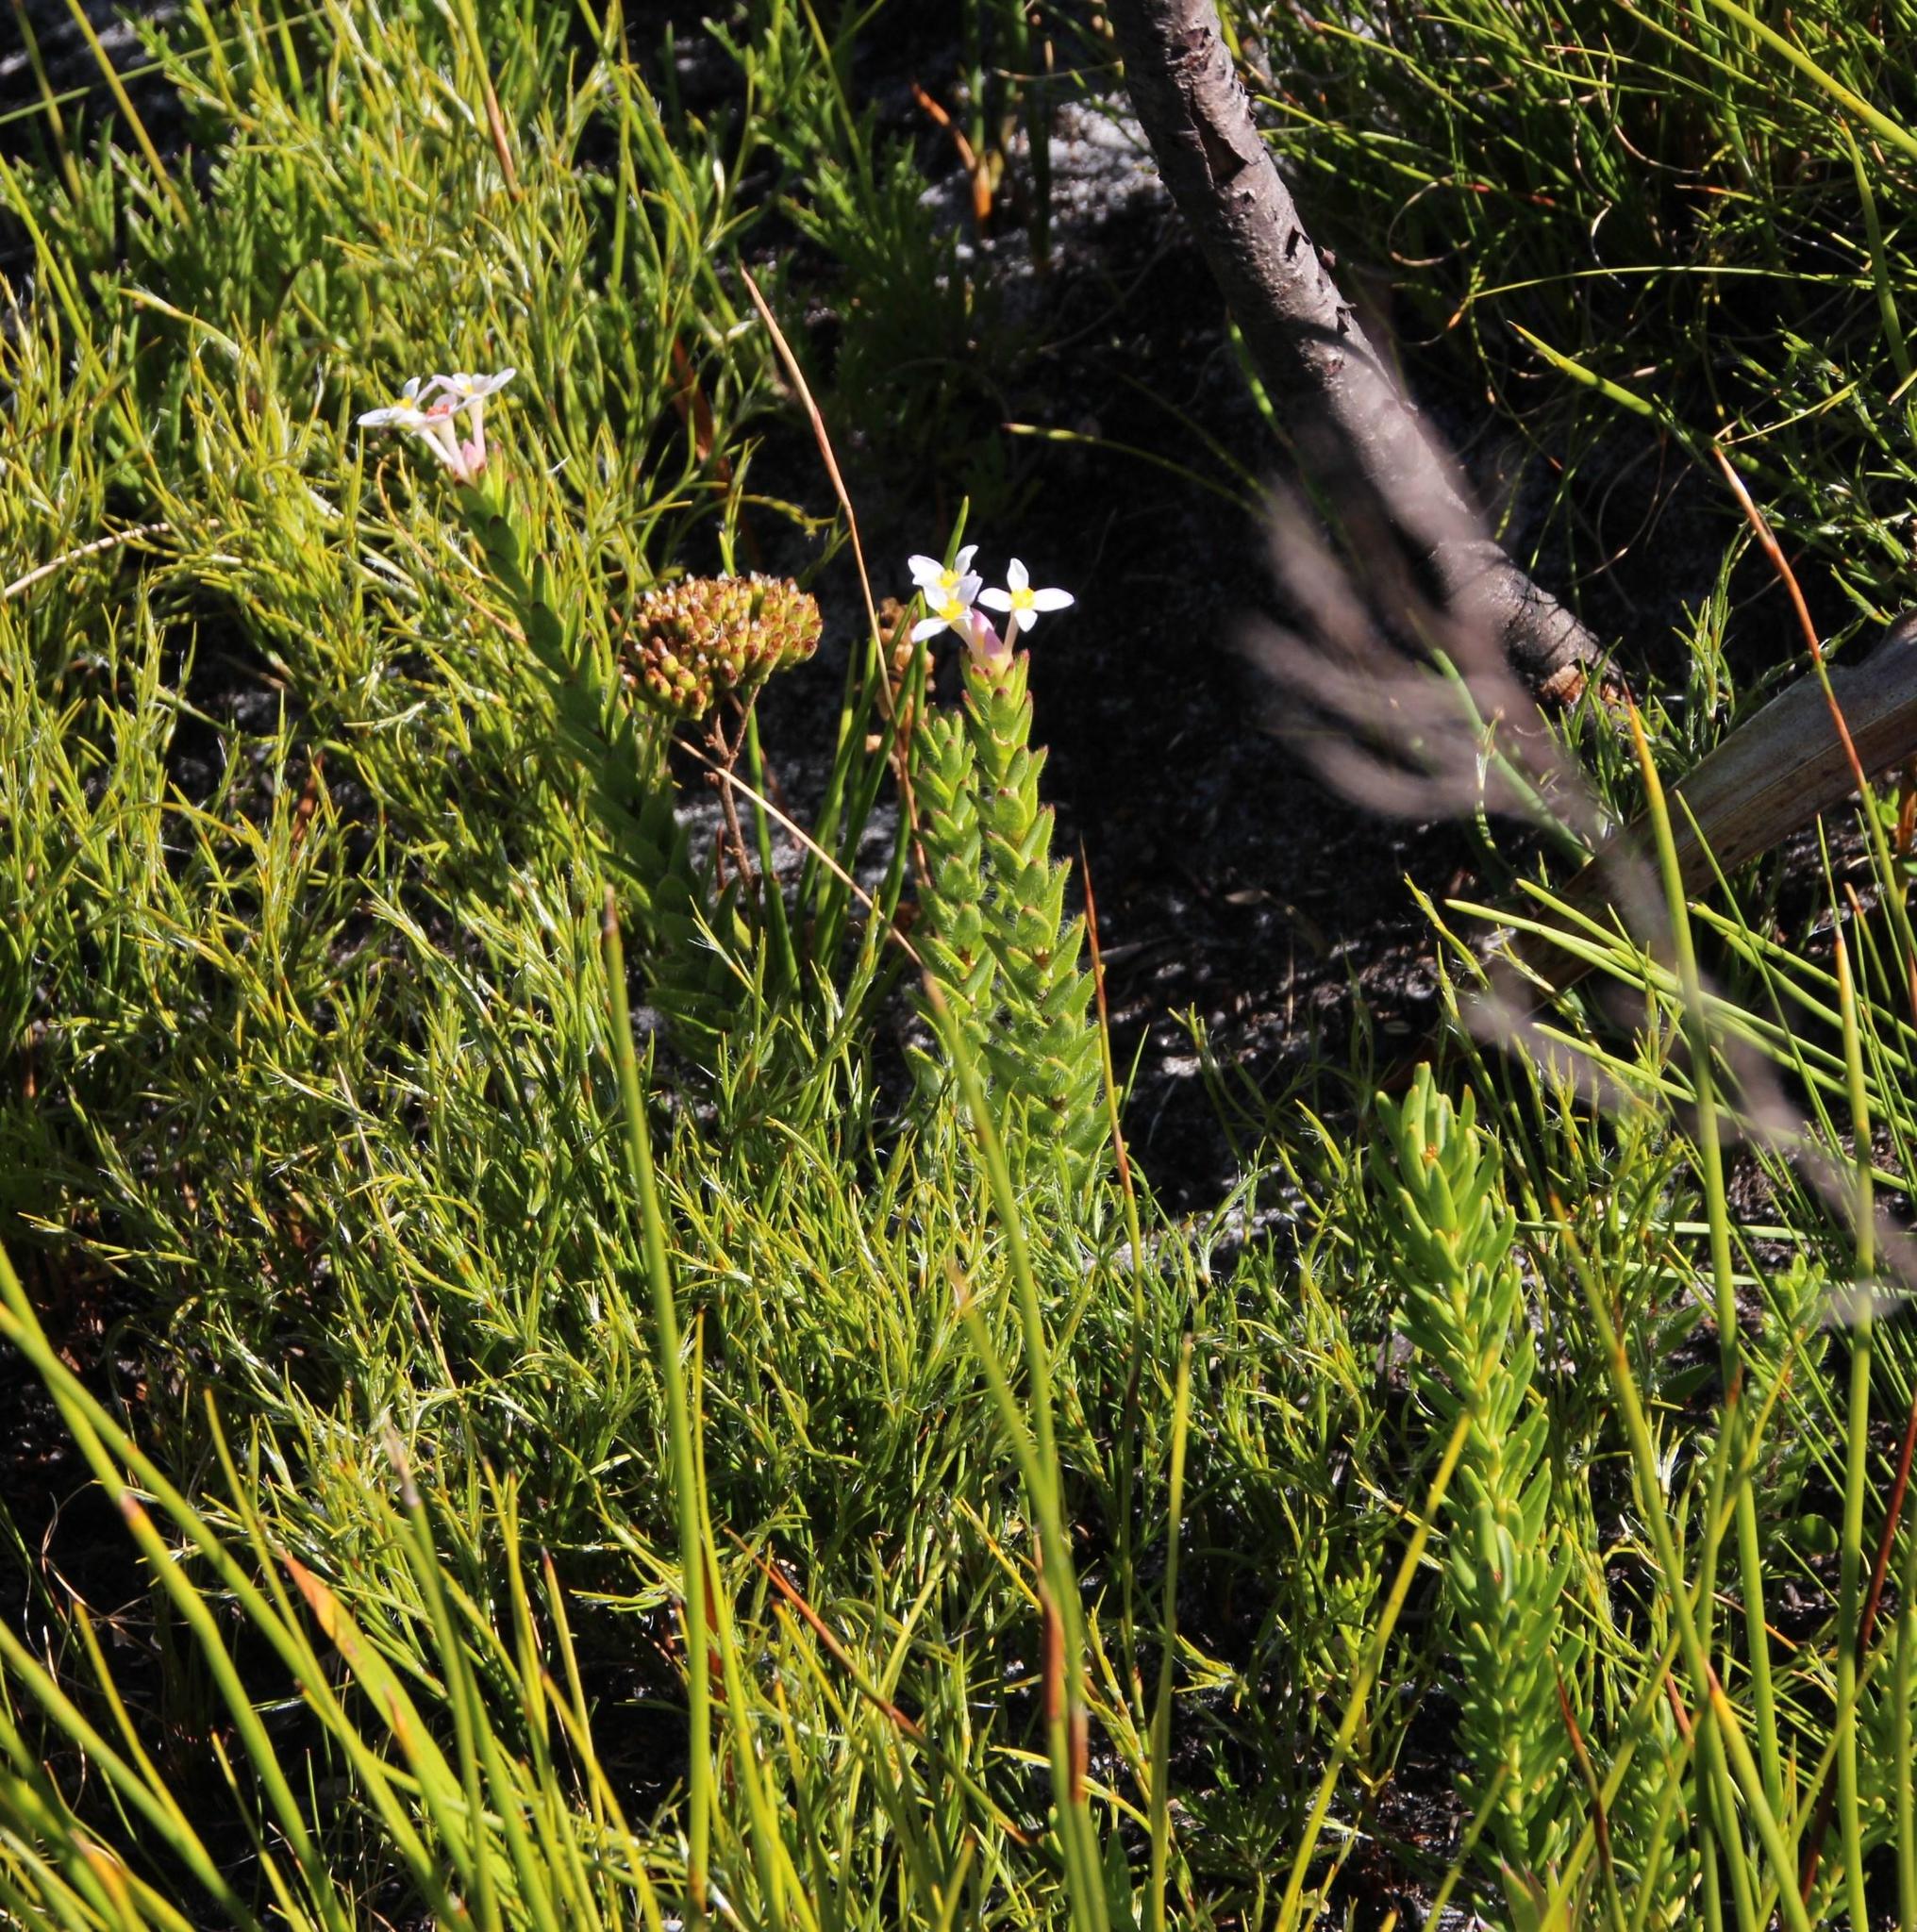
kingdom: Plantae
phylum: Tracheophyta
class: Magnoliopsida
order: Malvales
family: Thymelaeaceae
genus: Gnidia
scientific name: Gnidia tomentosa
